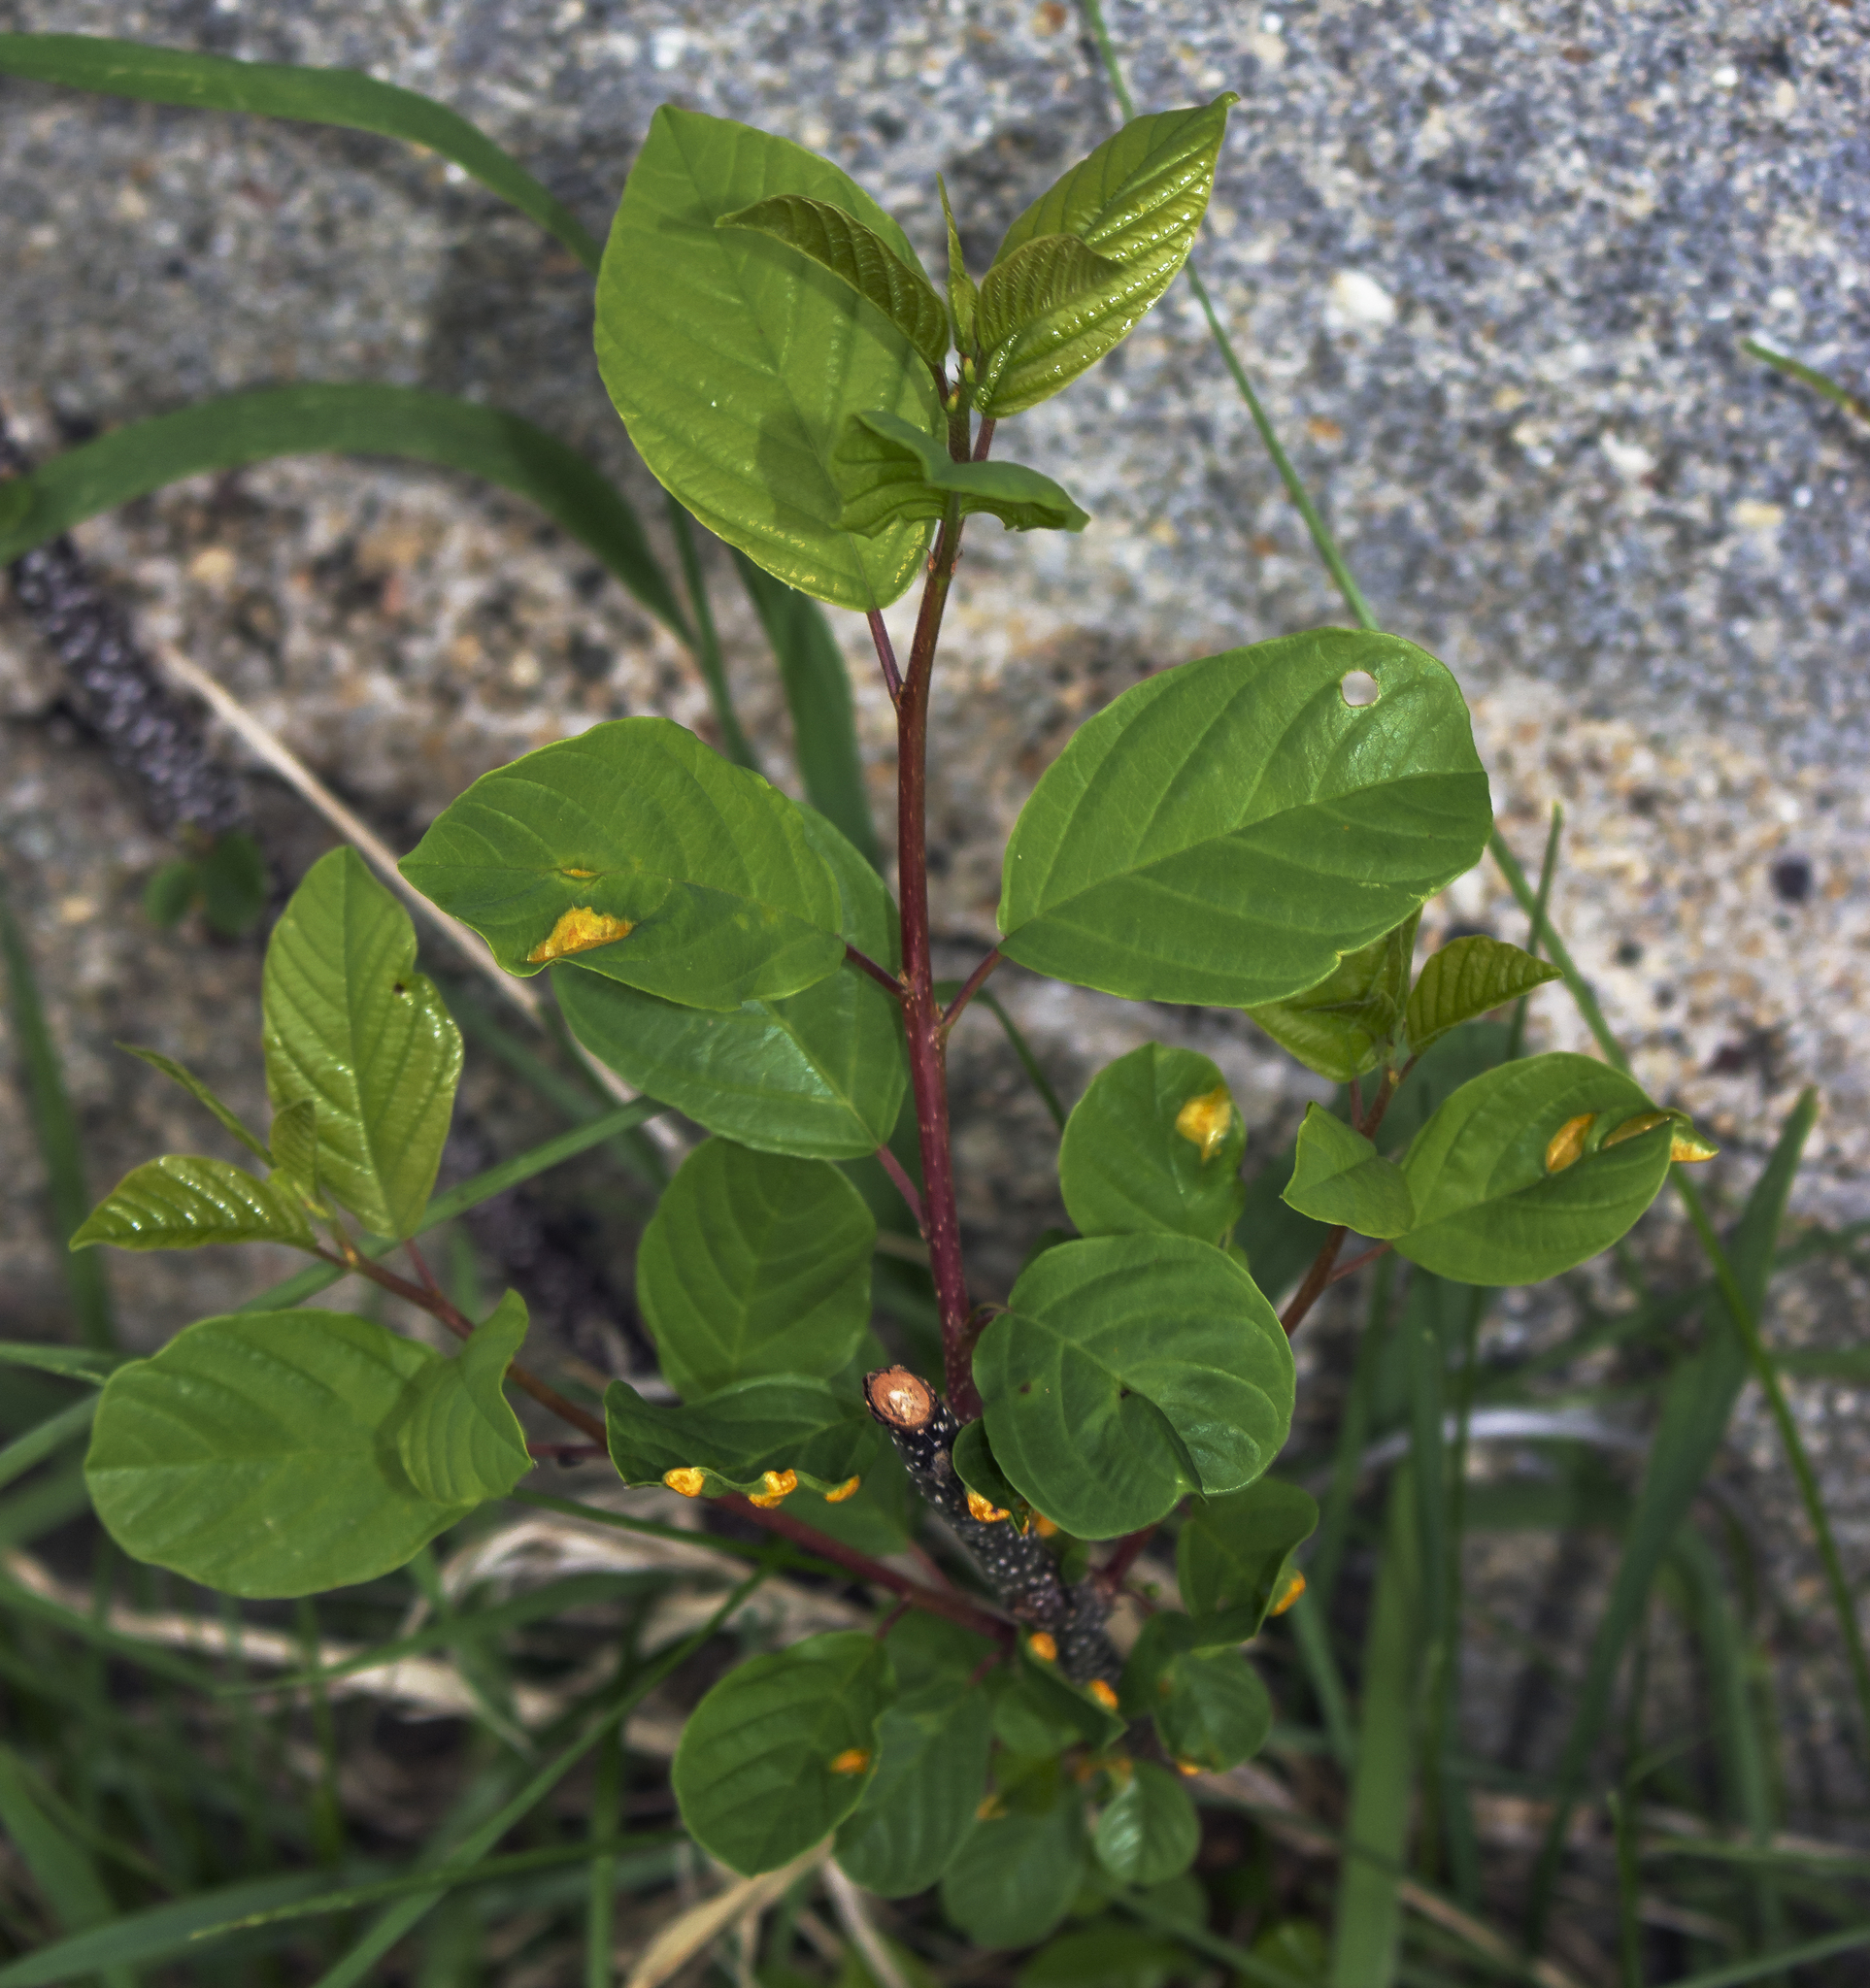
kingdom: Plantae
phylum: Tracheophyta
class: Magnoliopsida
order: Rosales
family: Rhamnaceae
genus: Frangula
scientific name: Frangula alnus
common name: Alder buckthorn
